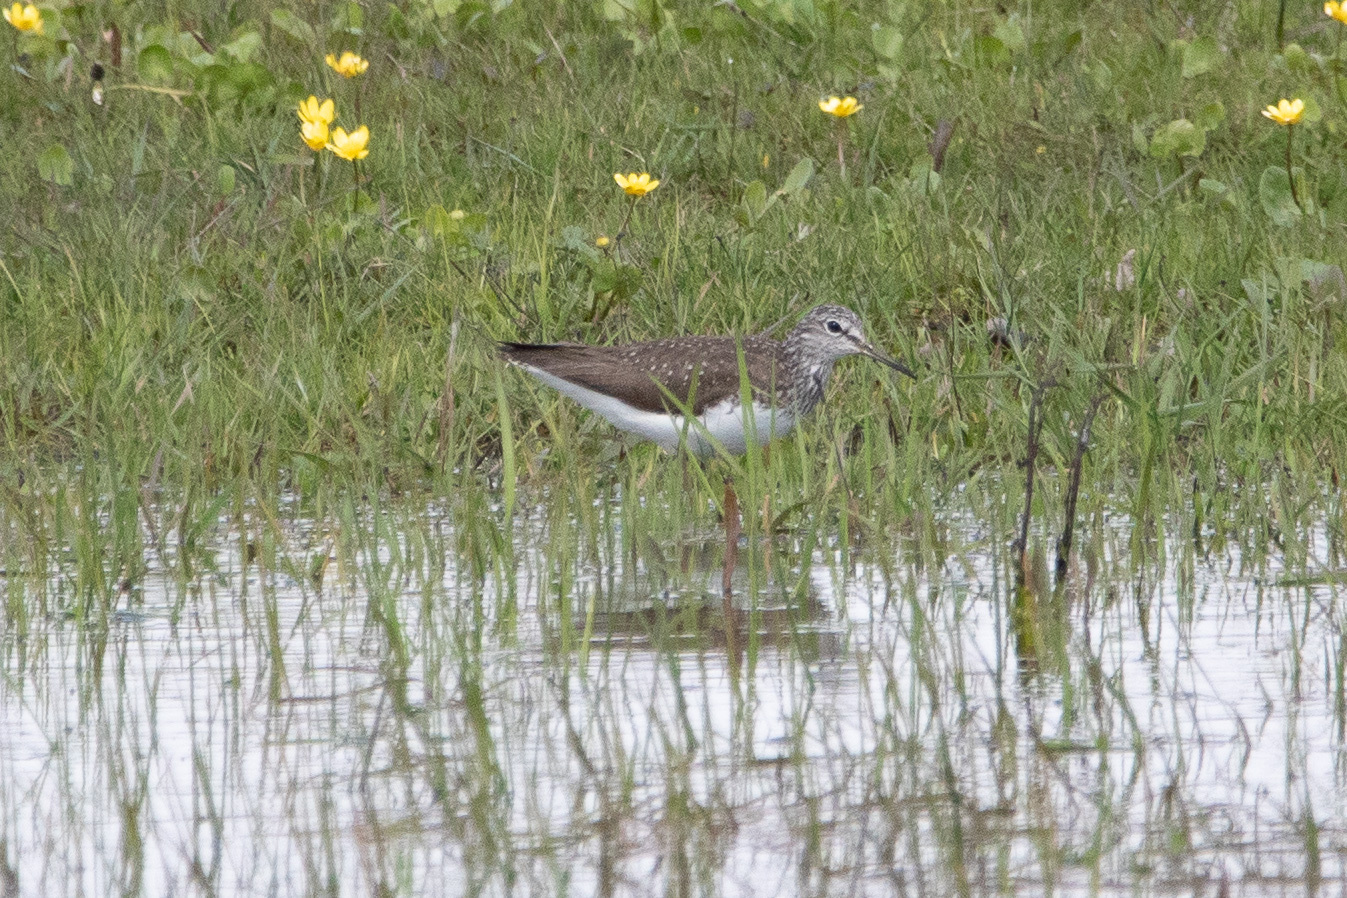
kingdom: Animalia
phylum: Chordata
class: Aves
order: Charadriiformes
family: Scolopacidae
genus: Tringa
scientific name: Tringa ochropus
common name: Green sandpiper
